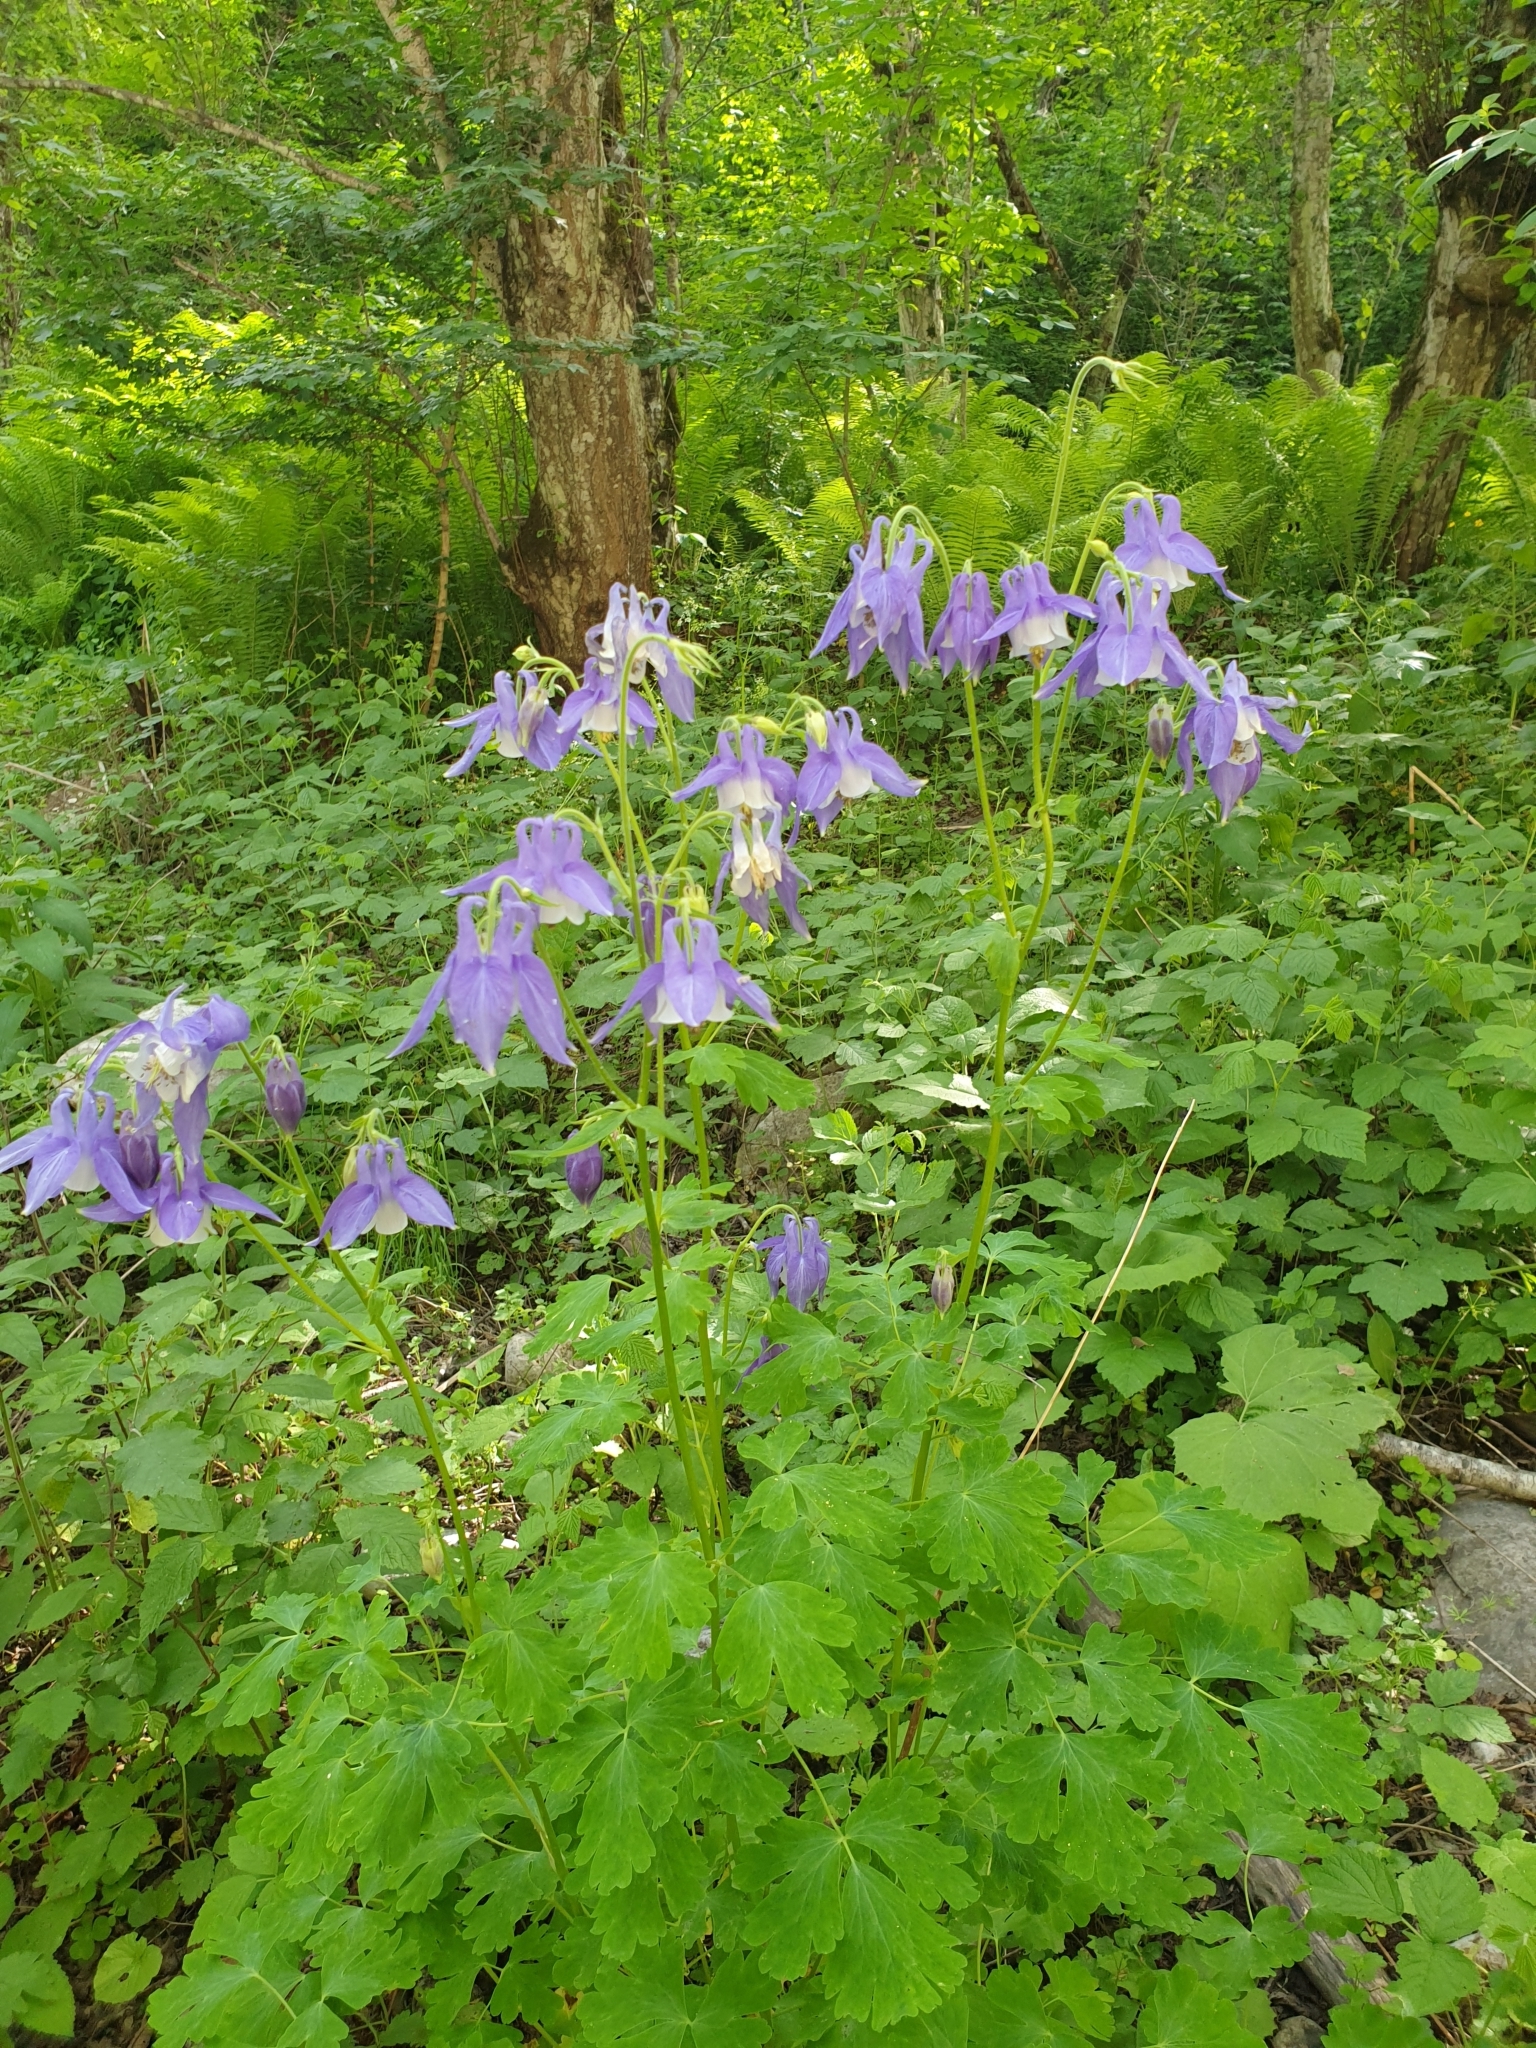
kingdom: Plantae
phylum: Tracheophyta
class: Magnoliopsida
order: Ranunculales
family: Ranunculaceae
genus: Aquilegia
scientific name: Aquilegia olympica
